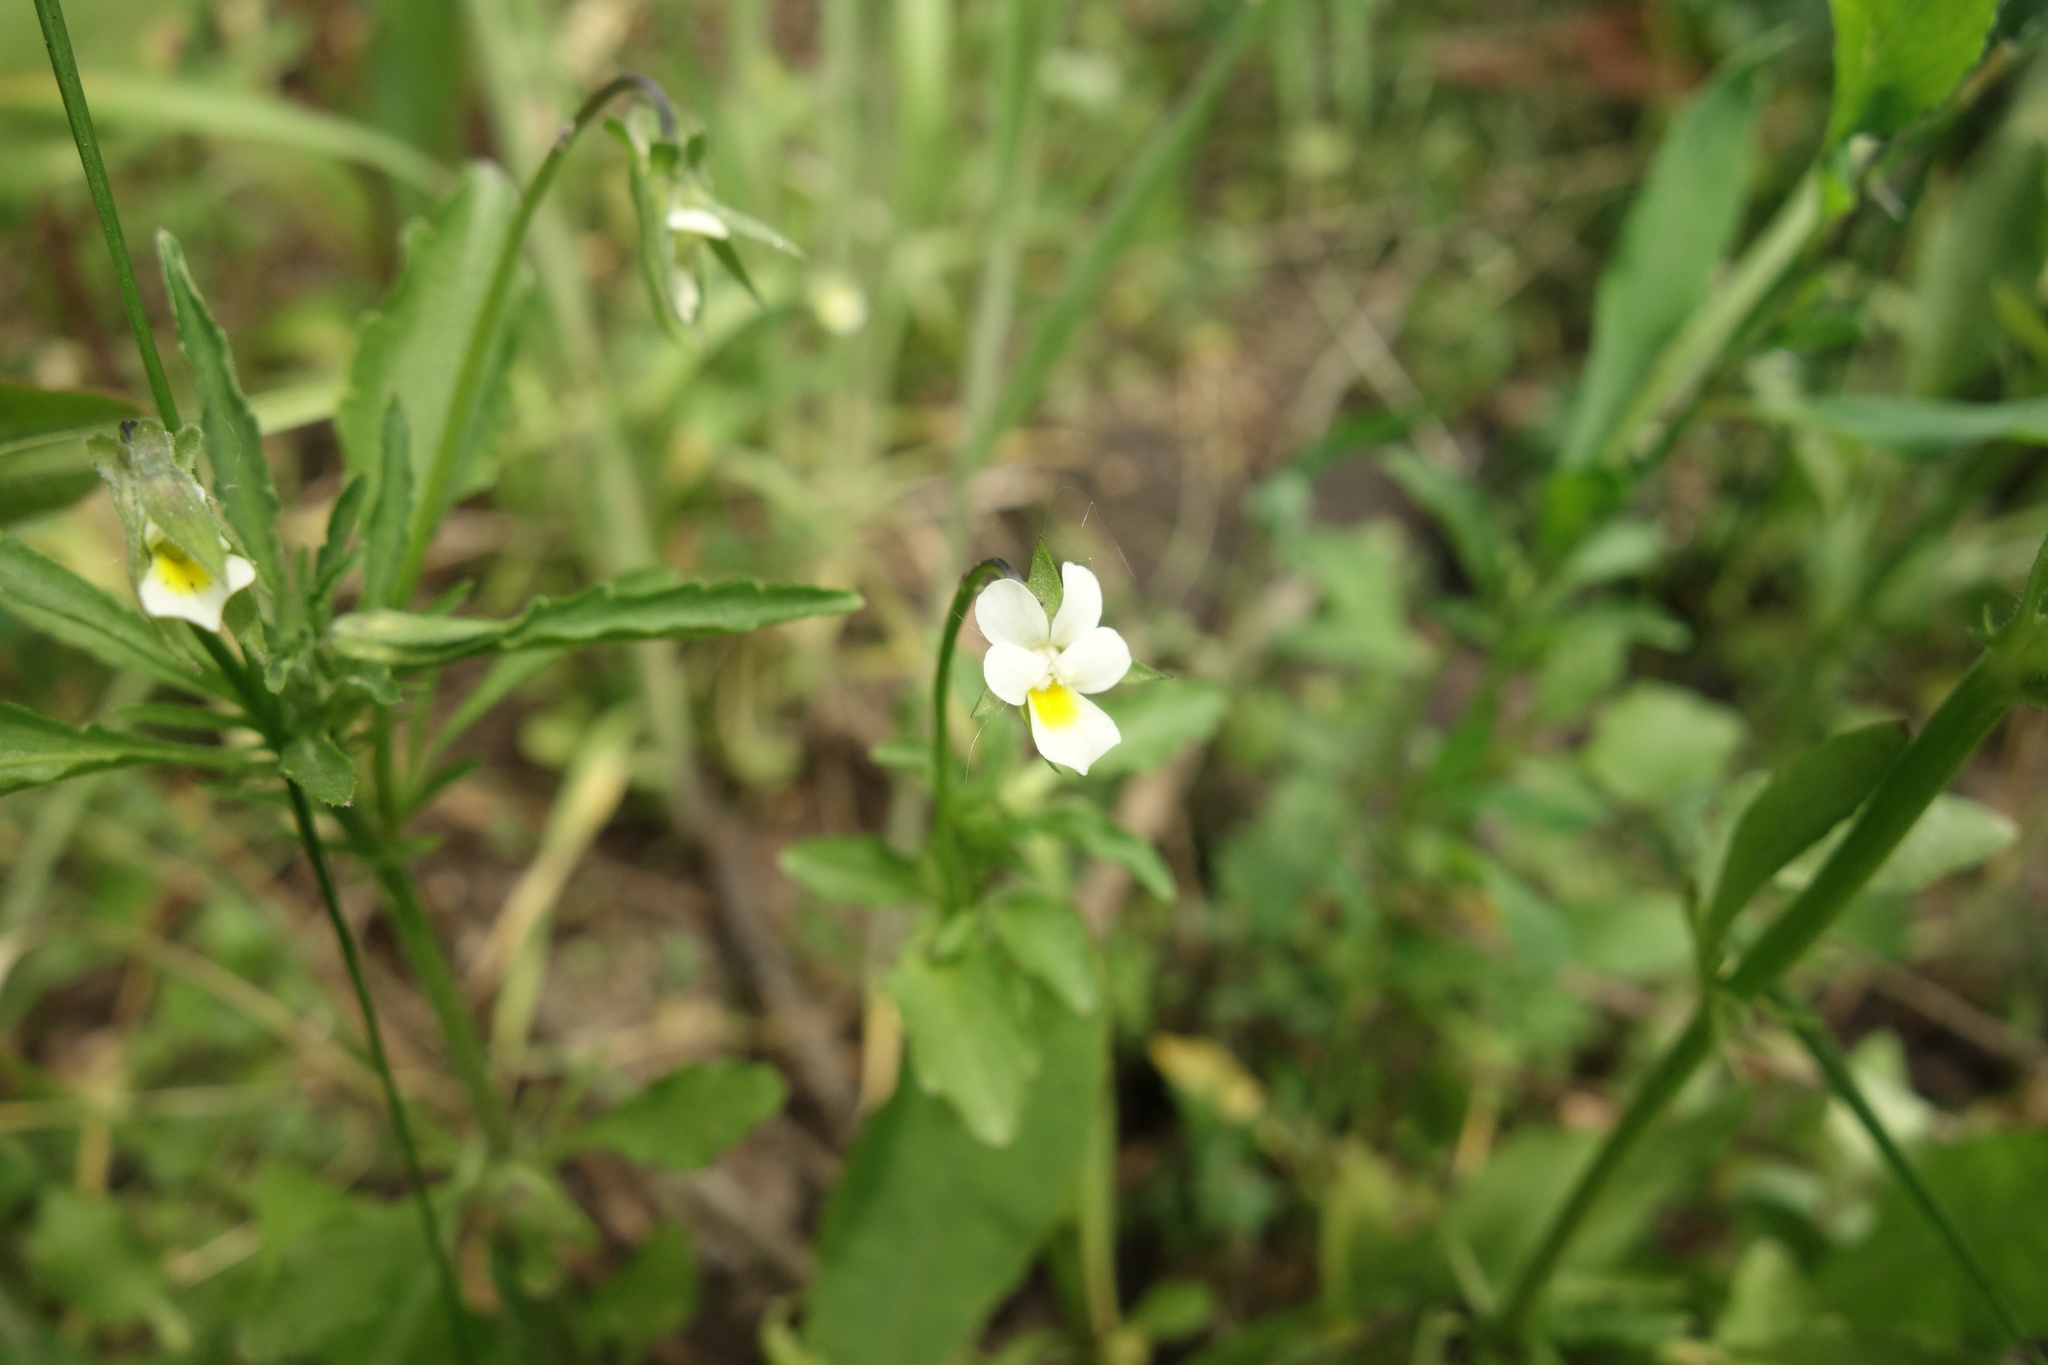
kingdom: Plantae
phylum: Tracheophyta
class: Magnoliopsida
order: Malpighiales
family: Violaceae
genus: Viola
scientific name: Viola arvensis
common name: Field pansy
